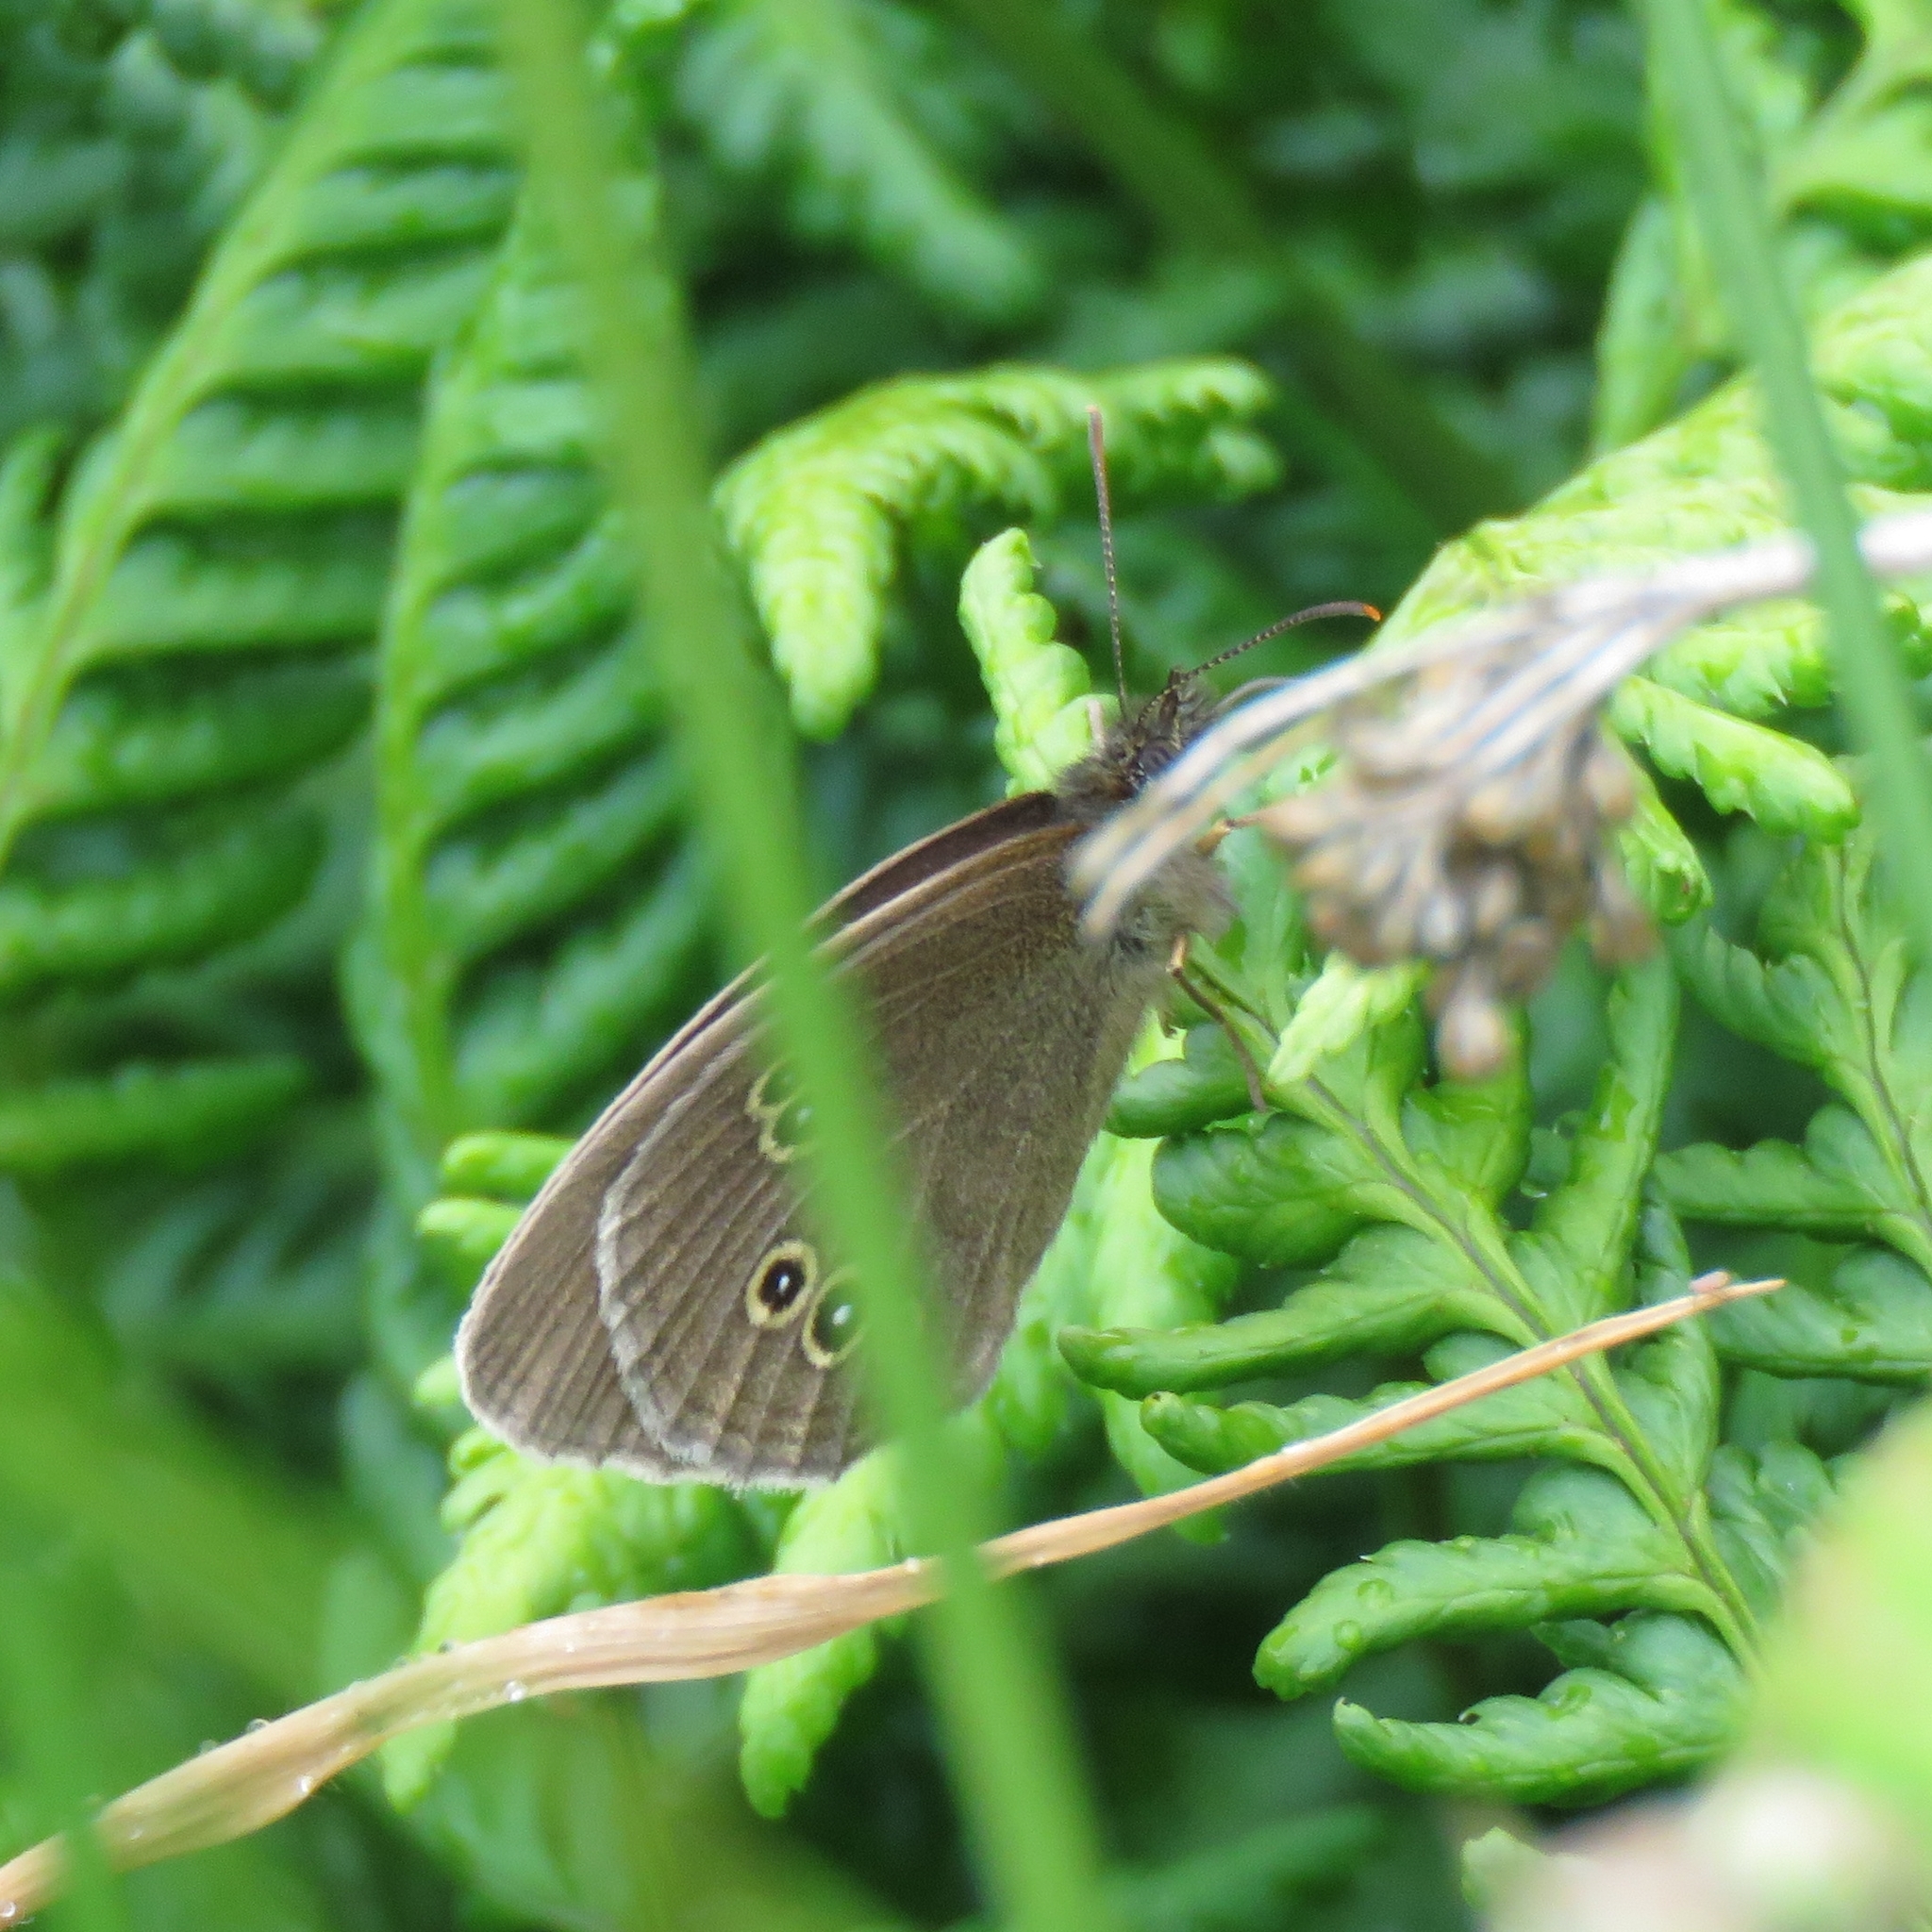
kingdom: Animalia
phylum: Arthropoda
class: Insecta
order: Lepidoptera
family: Nymphalidae
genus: Aphantopus
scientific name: Aphantopus hyperantus
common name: Ringlet
